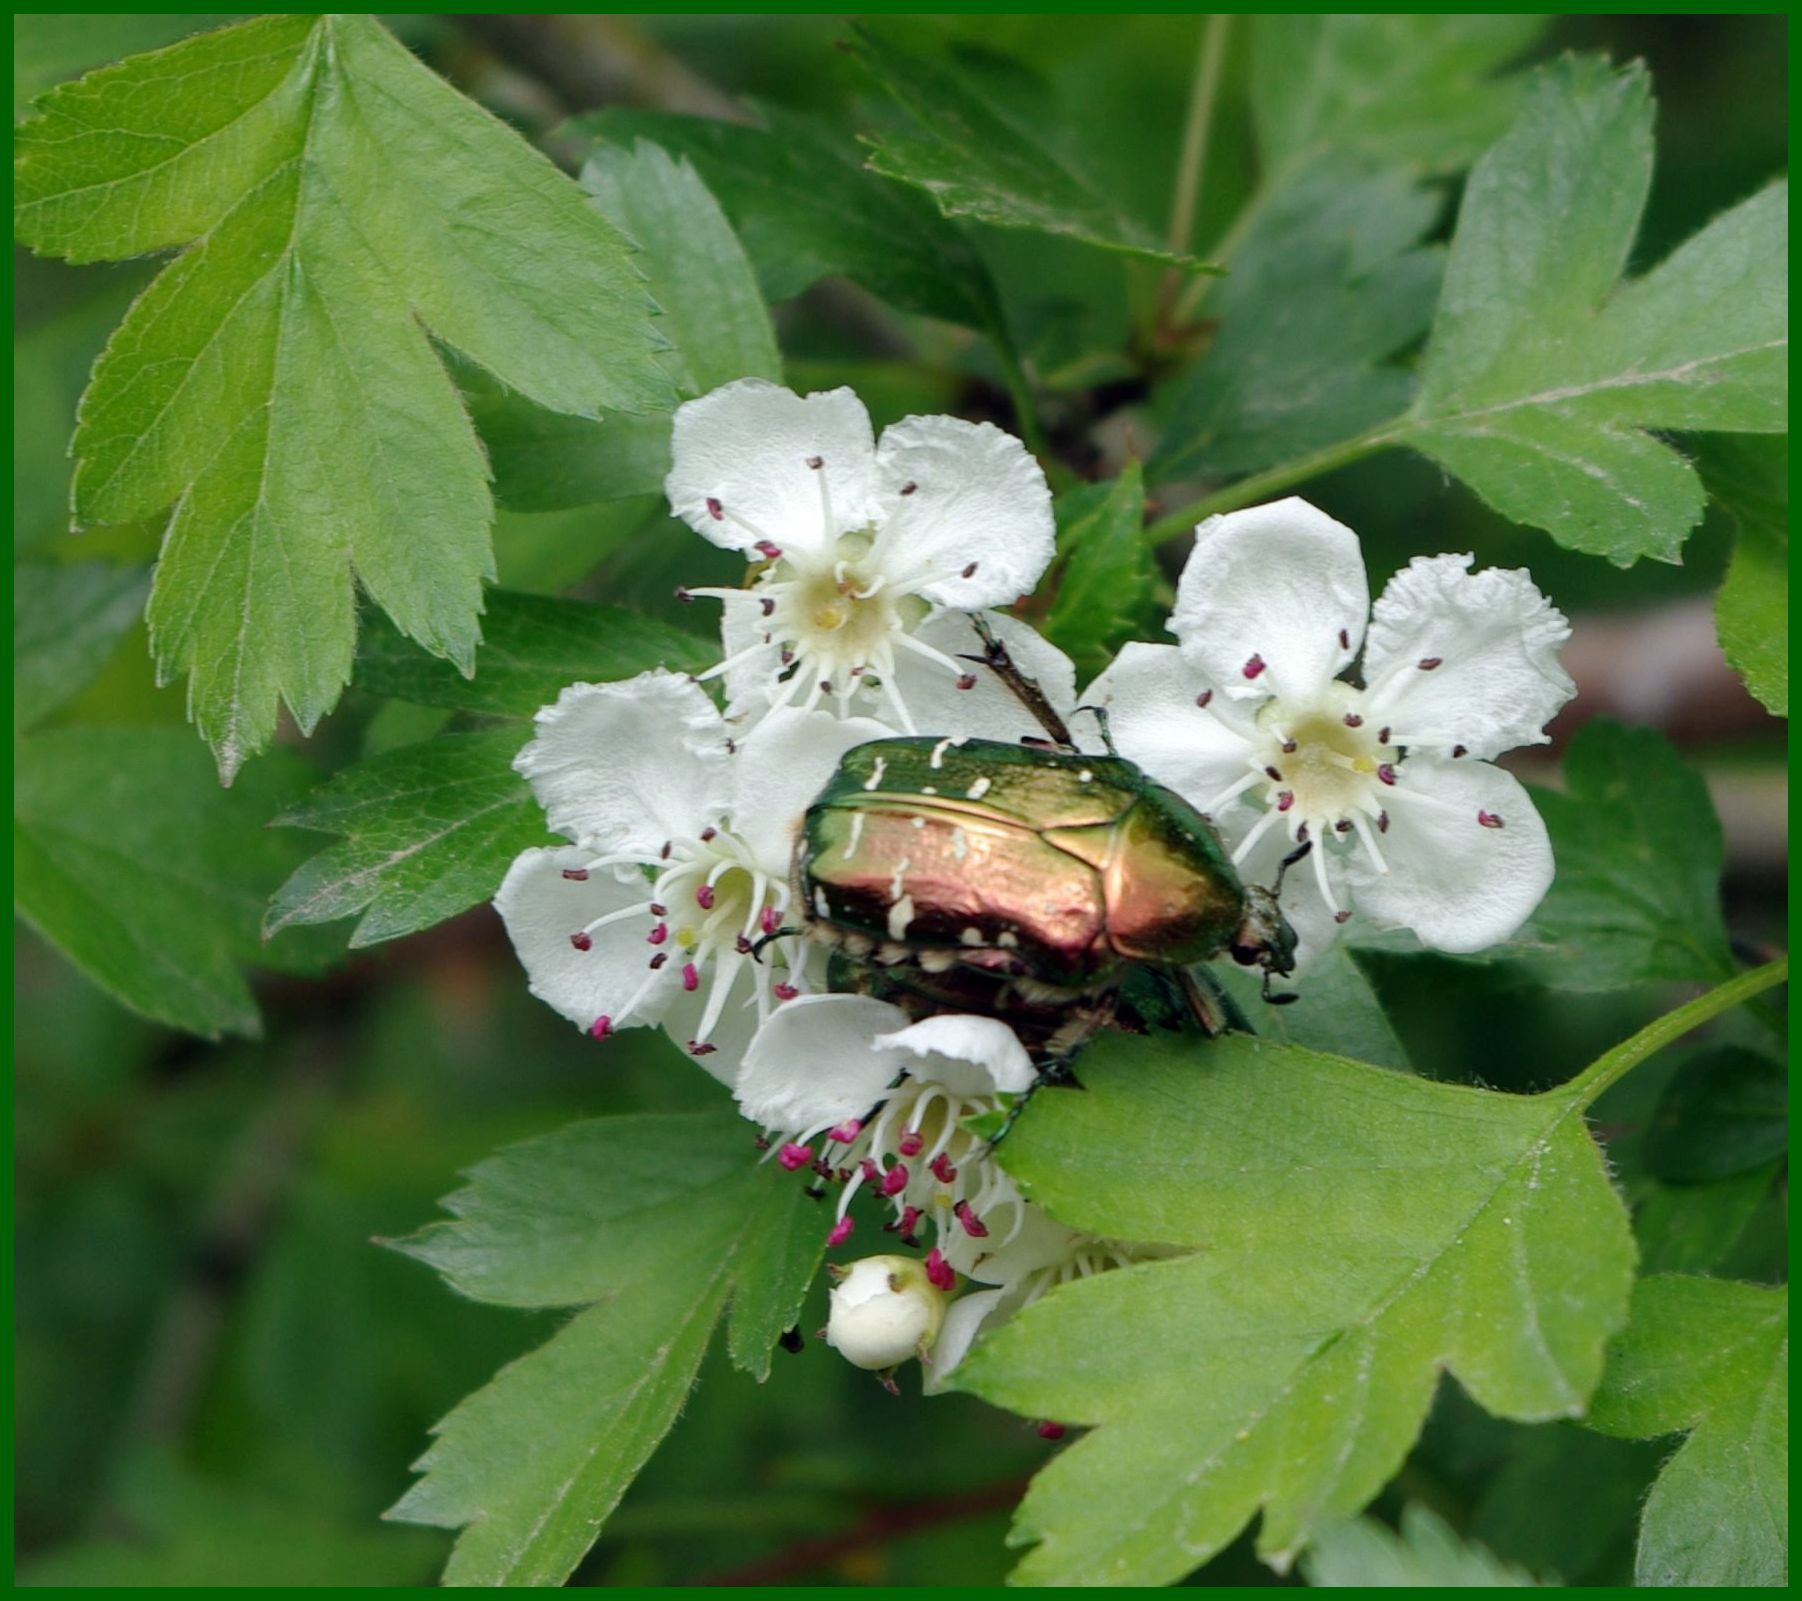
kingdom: Animalia
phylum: Arthropoda
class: Insecta
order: Coleoptera
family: Scarabaeidae
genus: Cetonia
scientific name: Cetonia aurata
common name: Rose chafer
